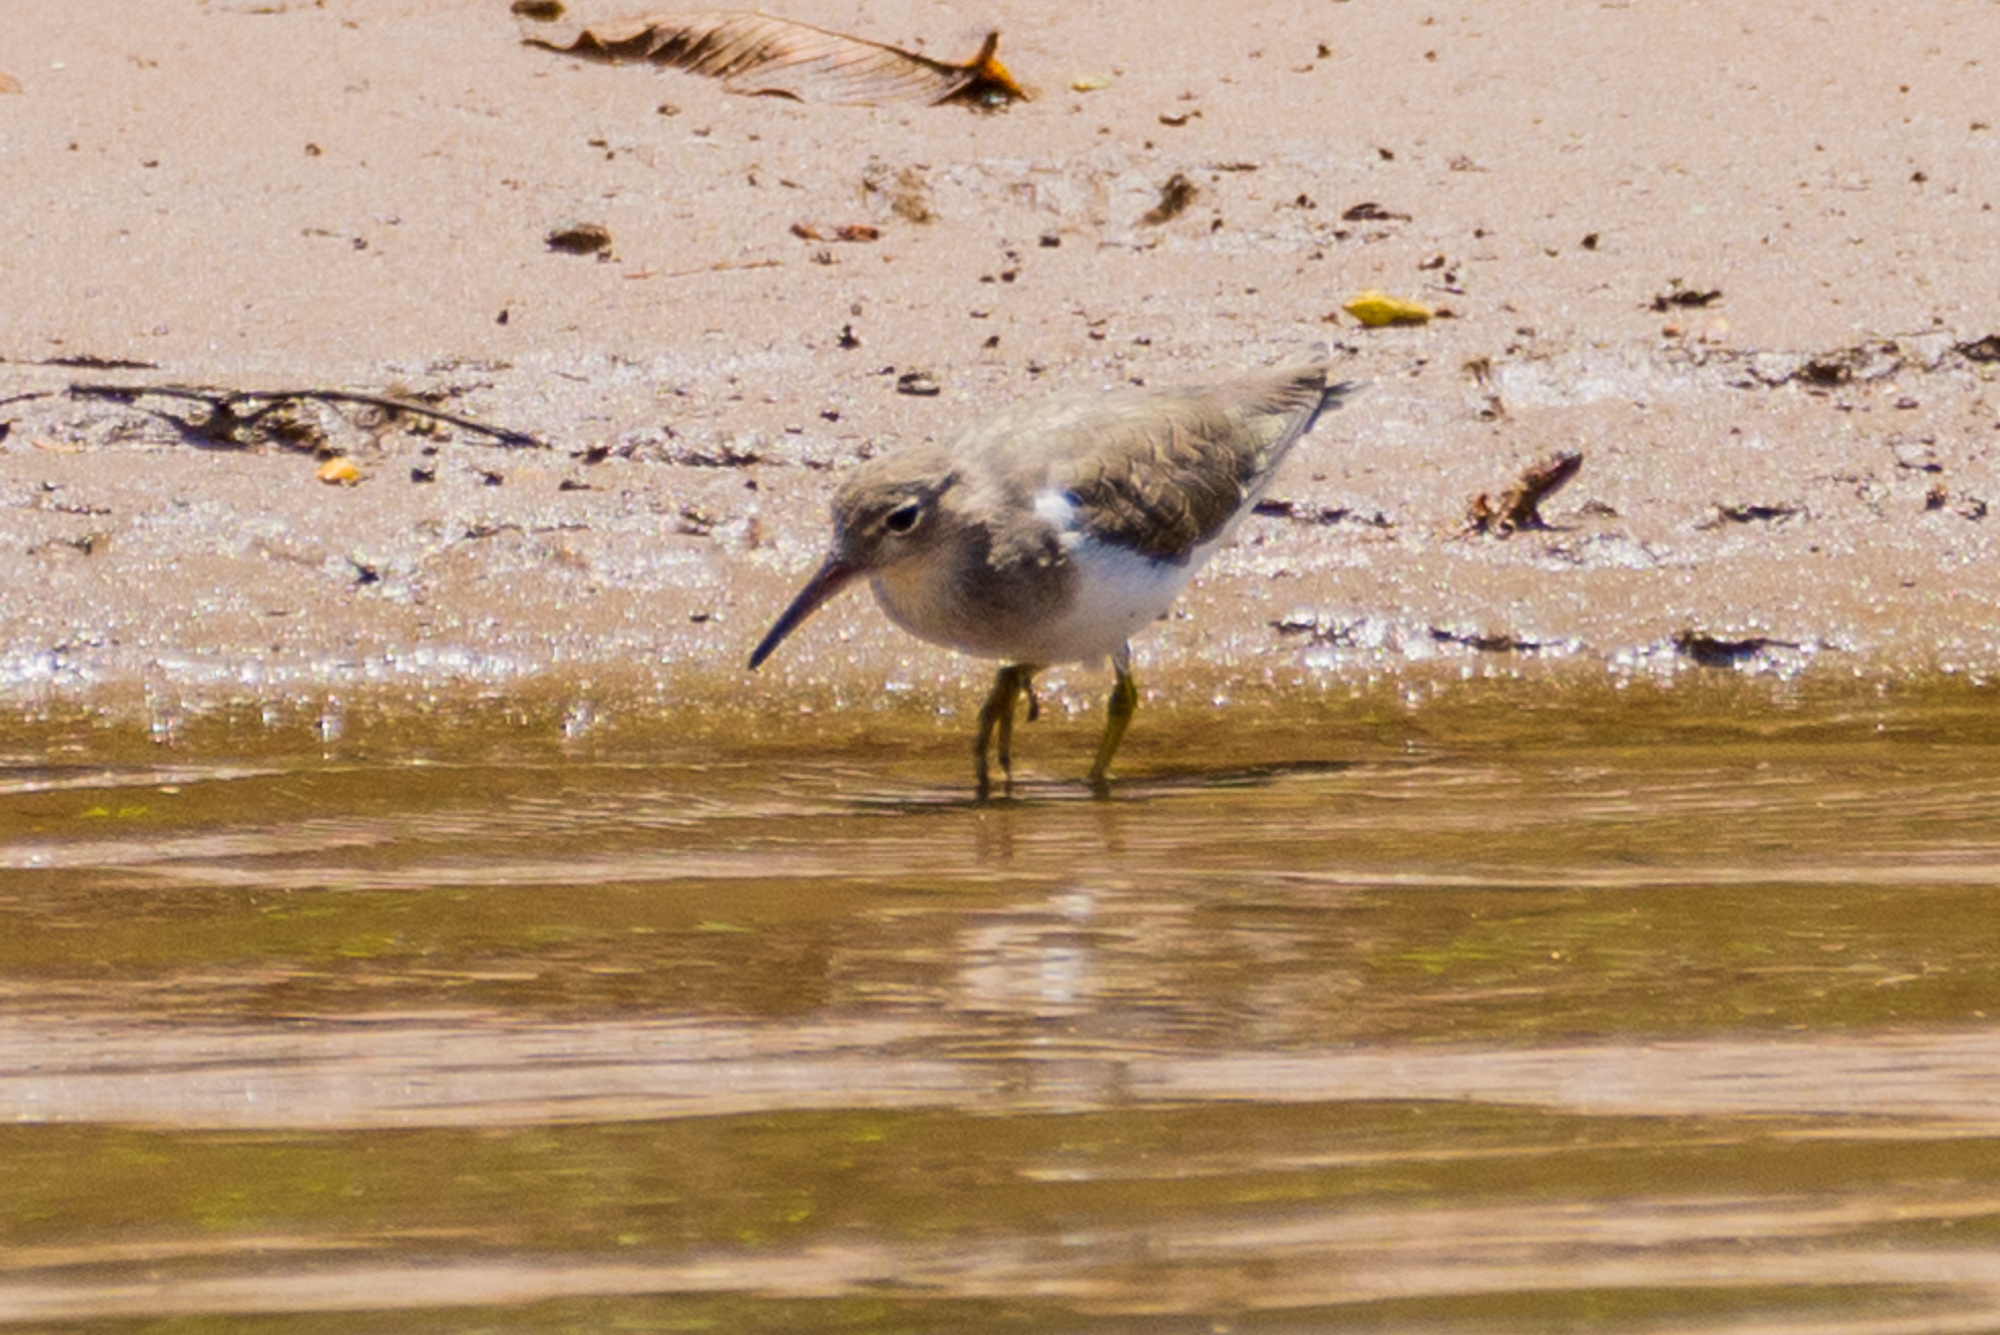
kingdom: Animalia
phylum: Chordata
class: Aves
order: Charadriiformes
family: Scolopacidae
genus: Actitis
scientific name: Actitis macularius
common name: Spotted sandpiper
